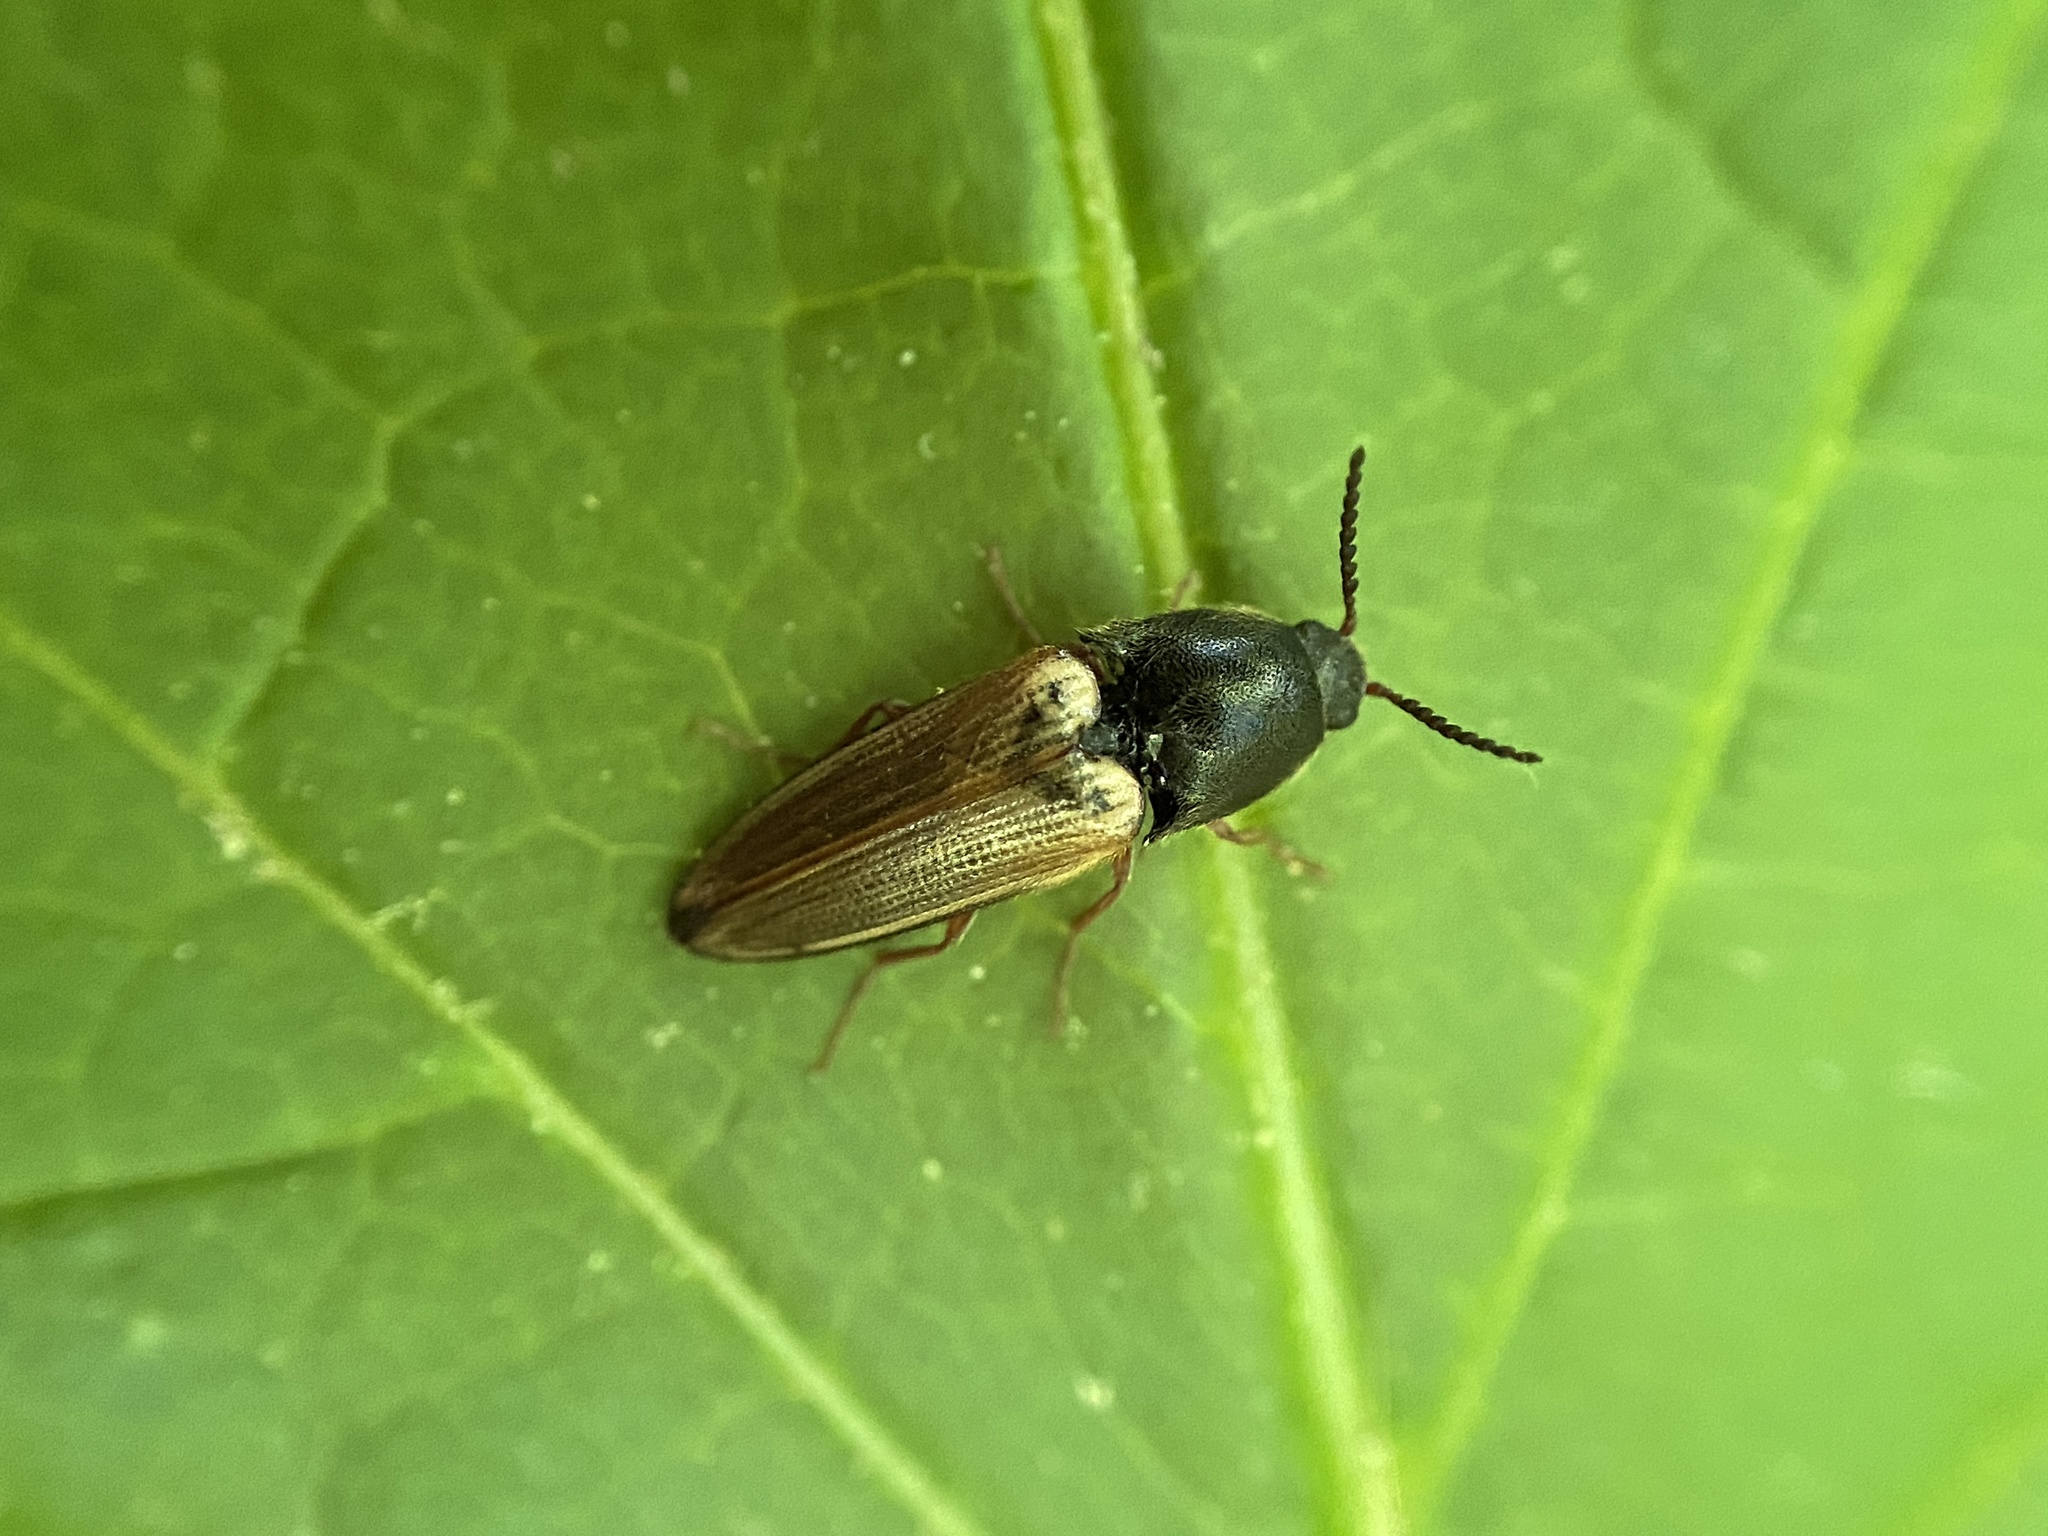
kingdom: Animalia
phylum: Arthropoda
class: Insecta
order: Coleoptera
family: Elateridae
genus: Ampedus
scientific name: Ampedus nigricollis
